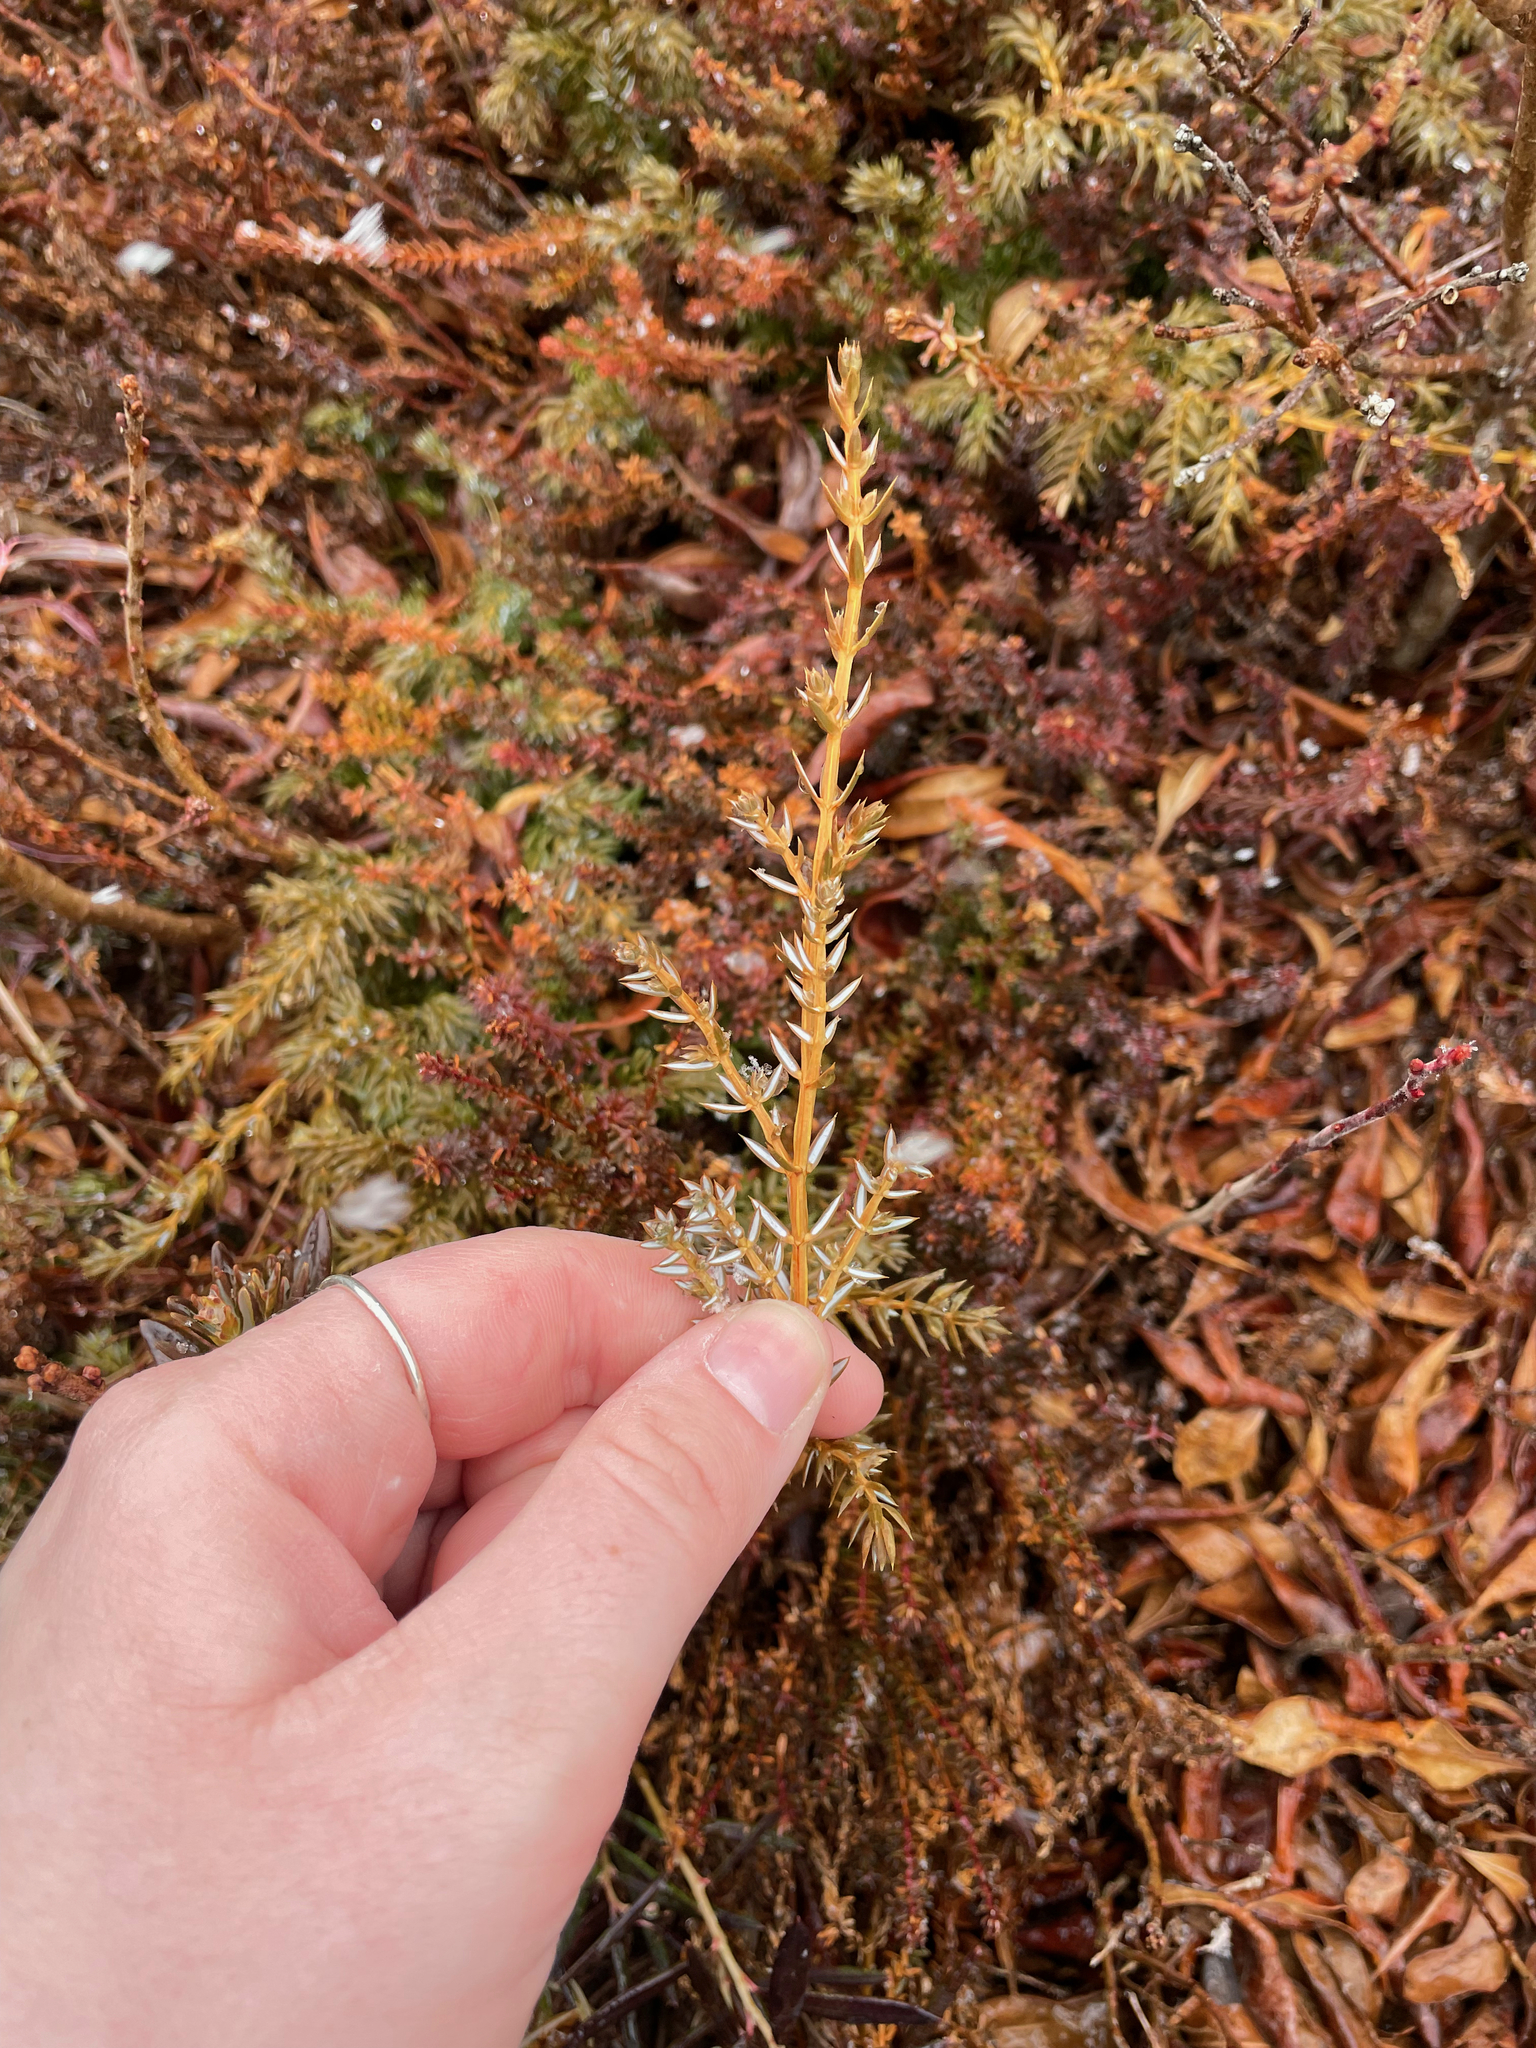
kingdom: Plantae
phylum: Tracheophyta
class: Pinopsida
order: Pinales
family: Cupressaceae
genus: Juniperus
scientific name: Juniperus communis
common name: Common juniper
